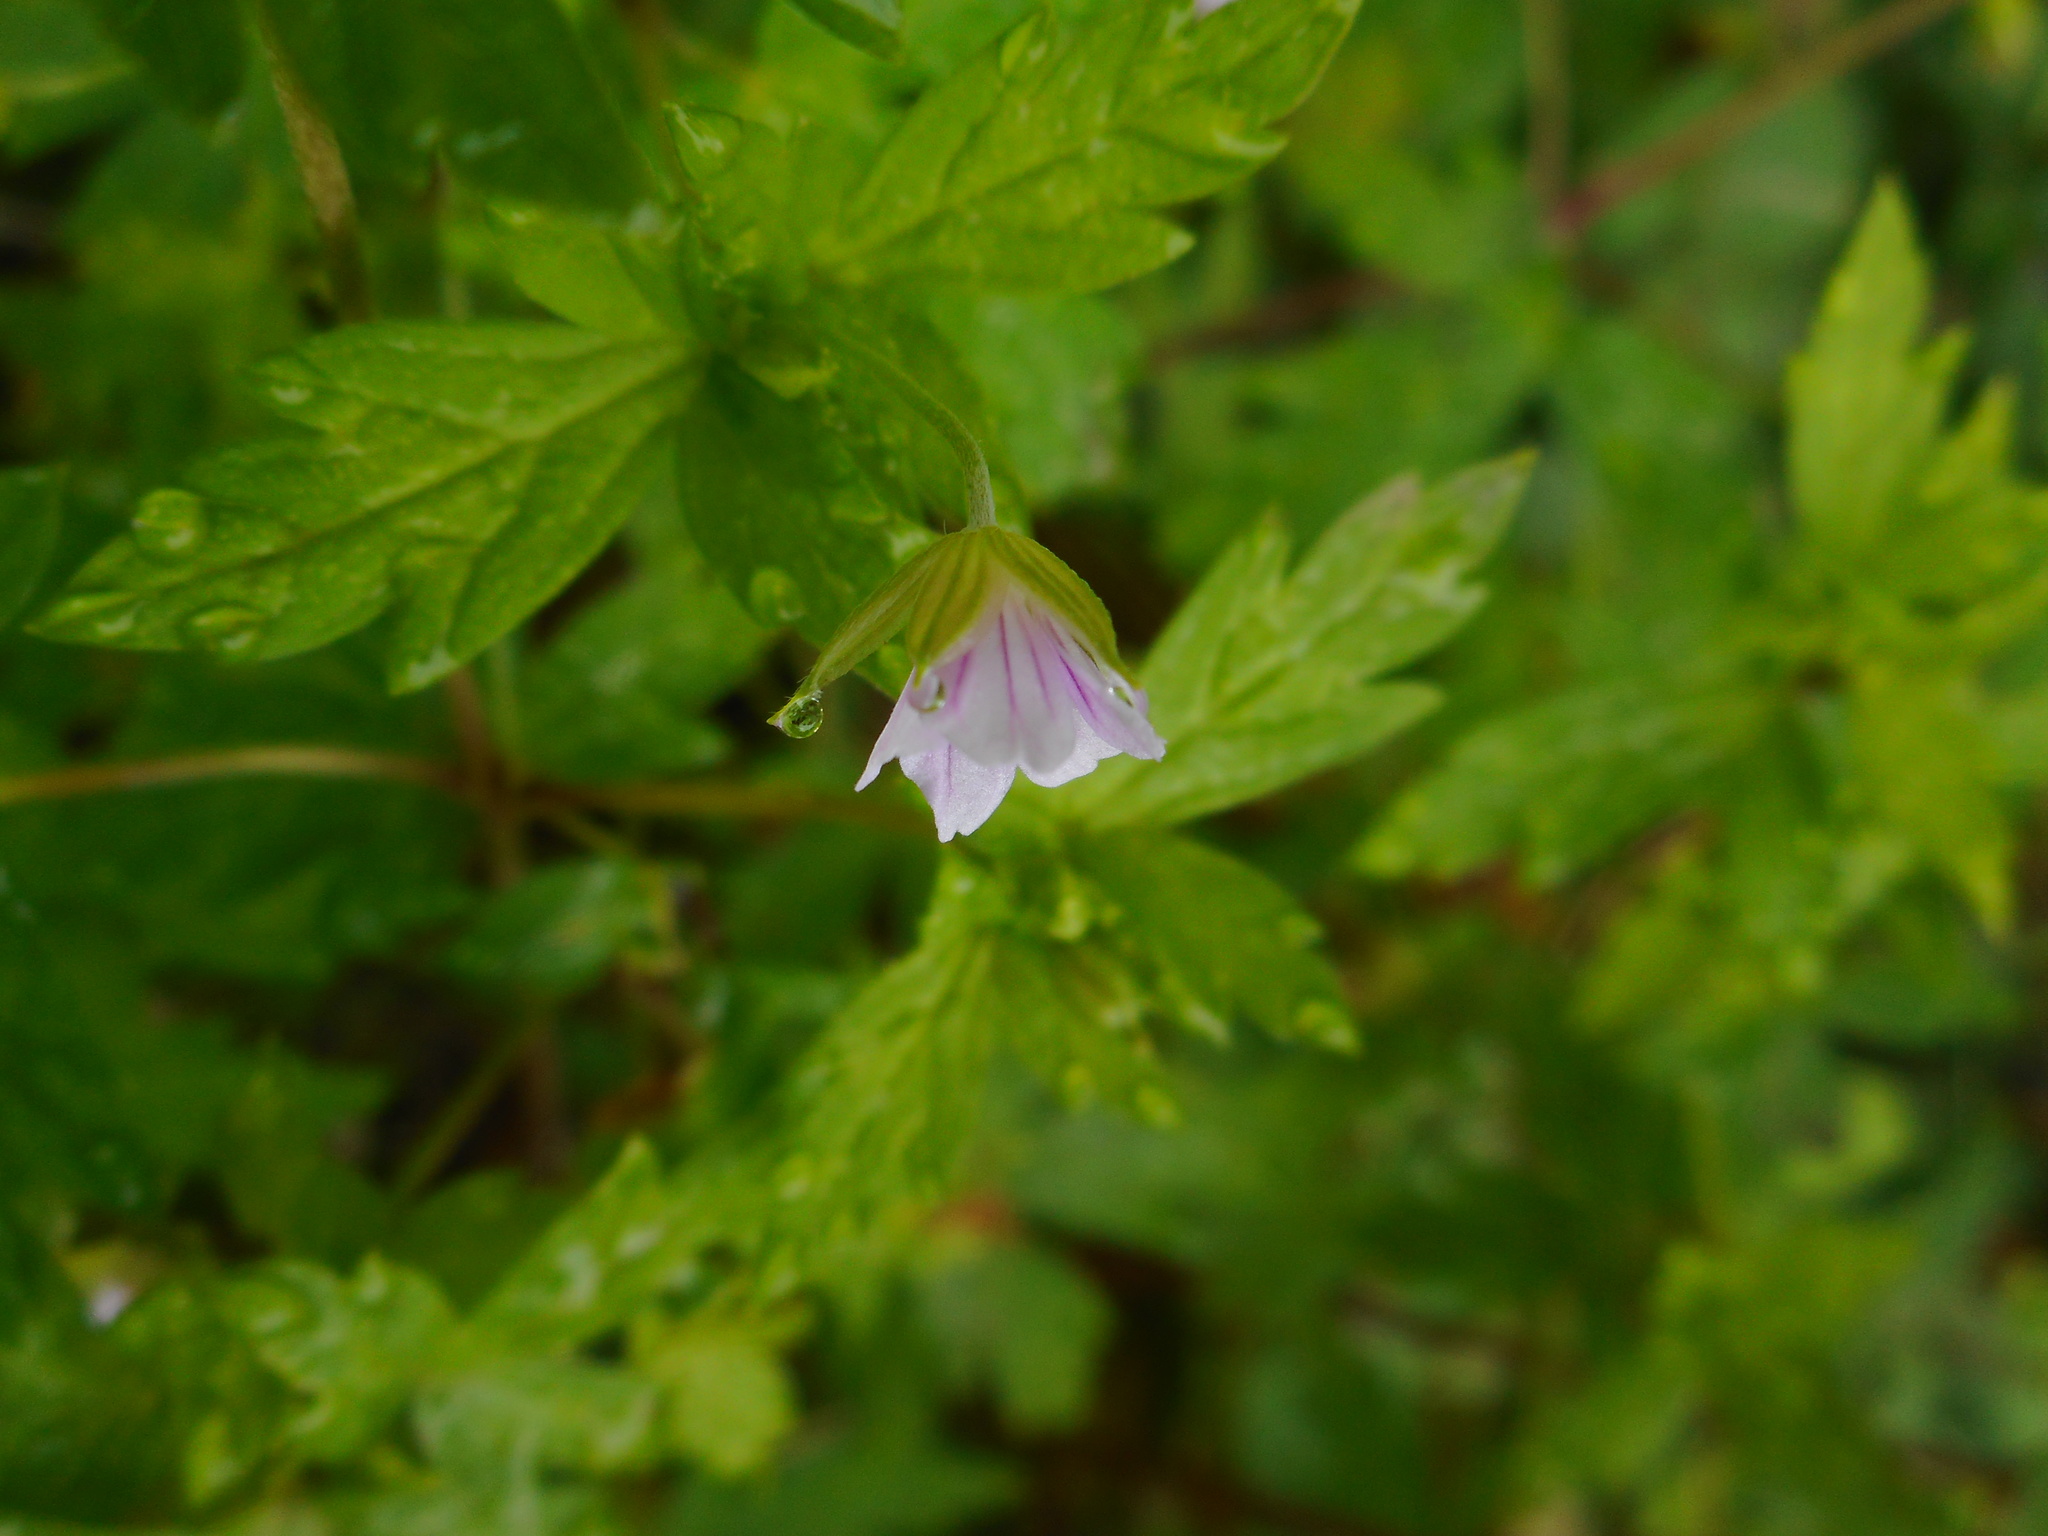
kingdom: Plantae
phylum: Tracheophyta
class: Magnoliopsida
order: Geraniales
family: Geraniaceae
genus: Geranium
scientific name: Geranium sibiricum
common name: Siberian crane's-bill
